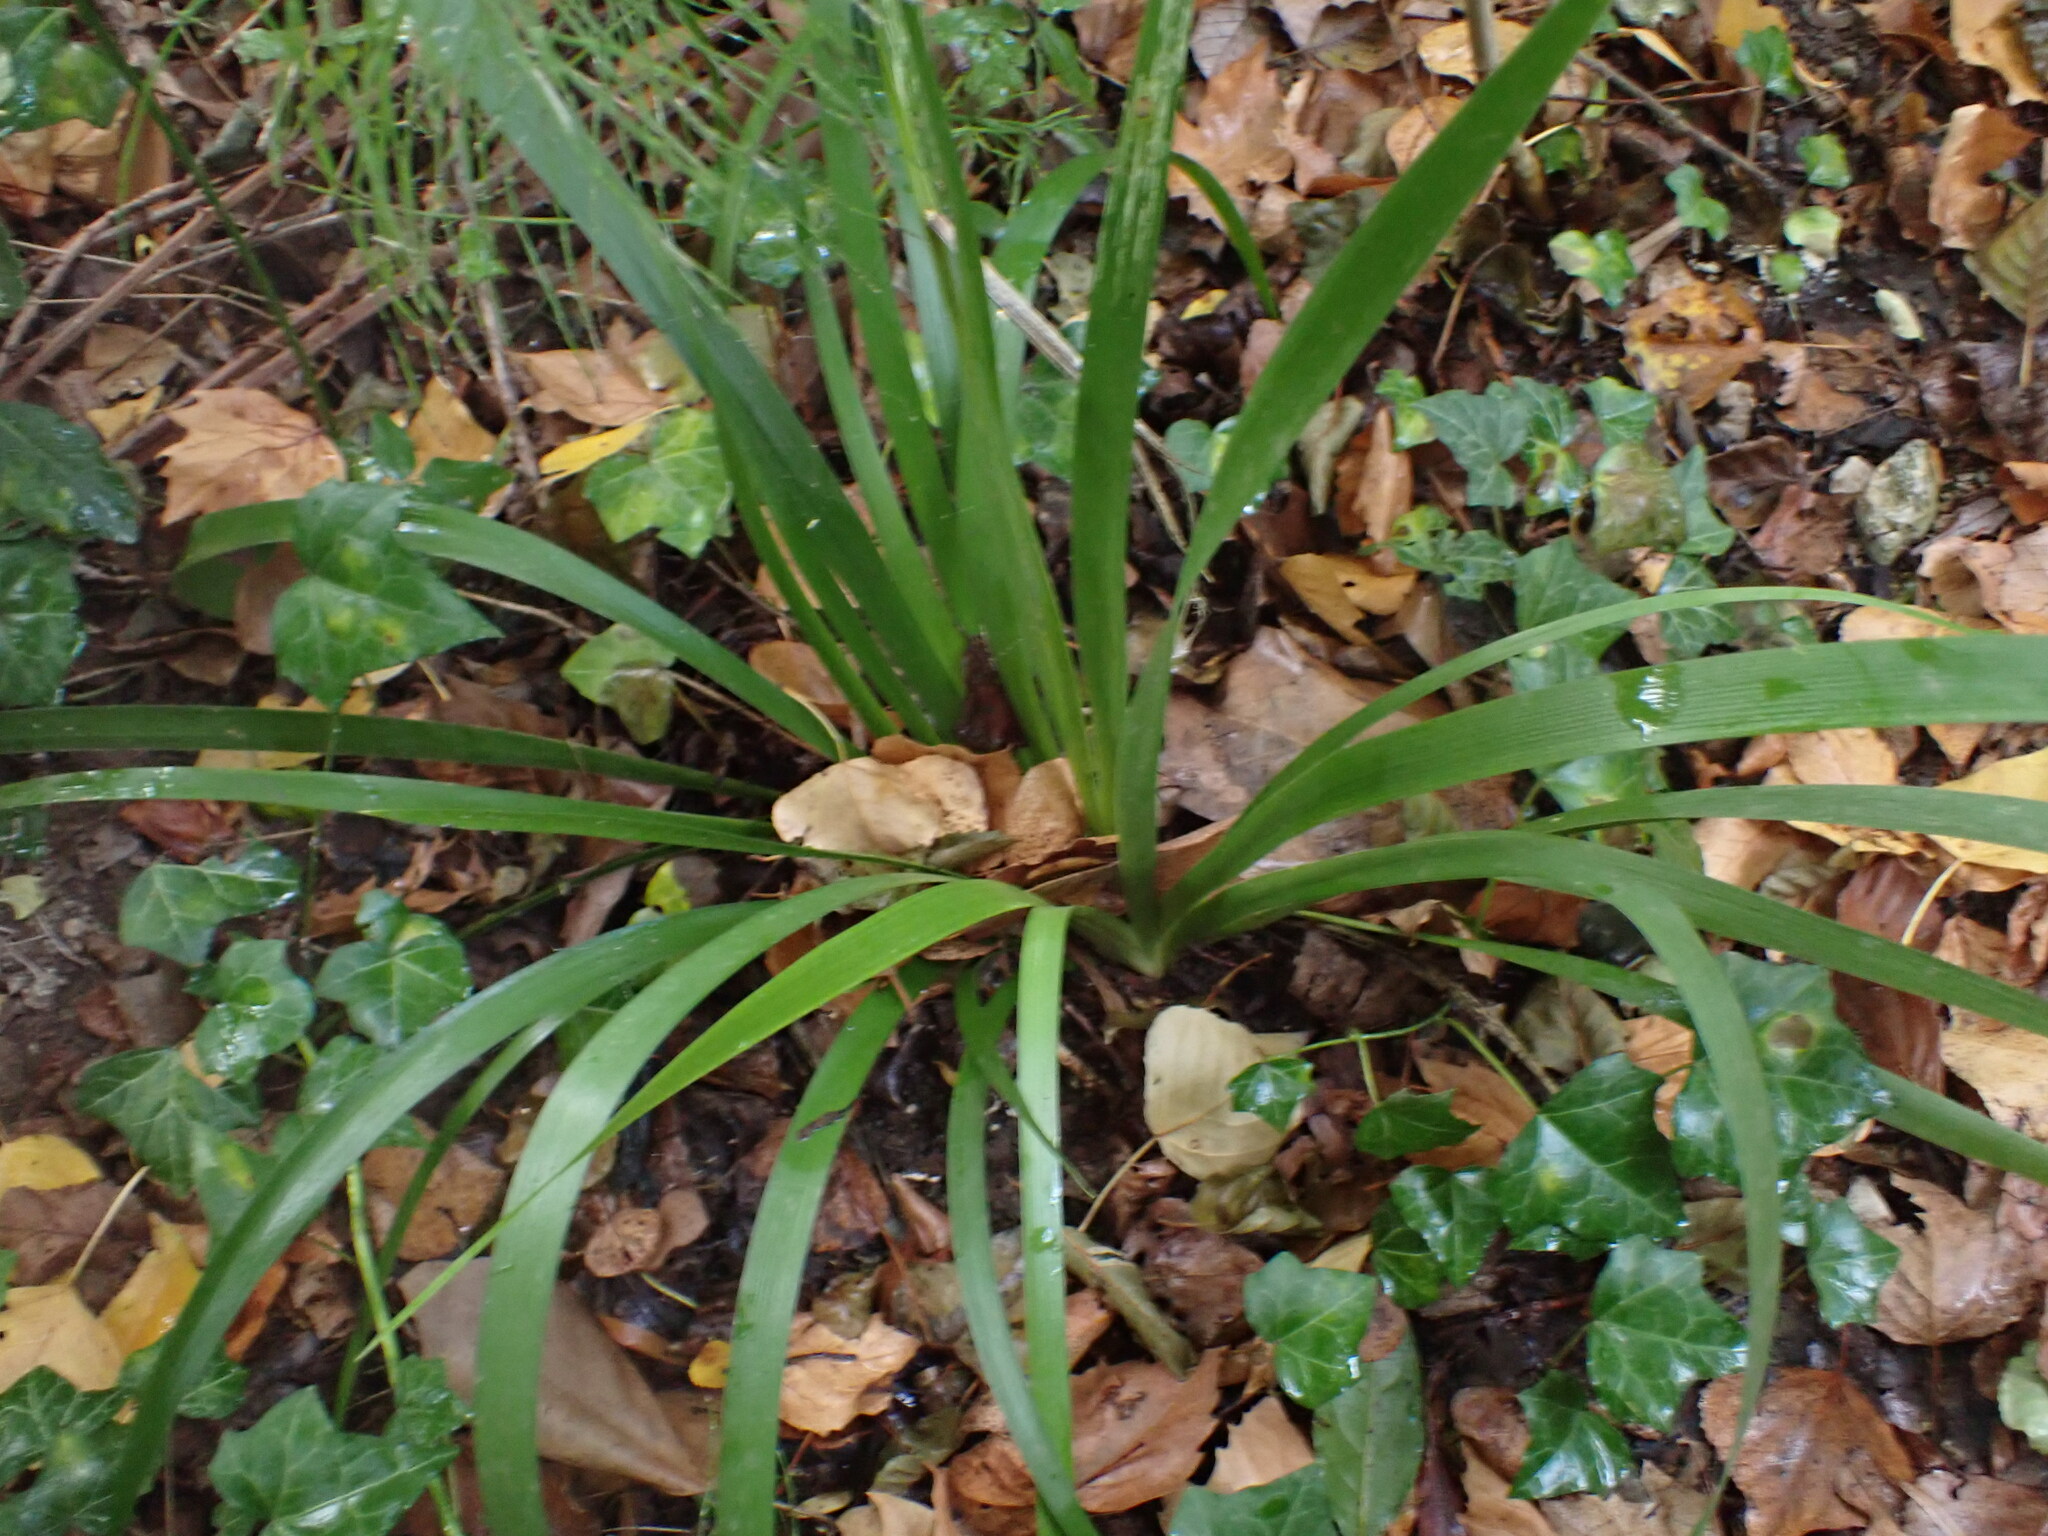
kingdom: Plantae
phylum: Tracheophyta
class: Liliopsida
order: Asparagales
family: Iridaceae
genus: Iris
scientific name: Iris foetidissima
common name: Stinking iris
